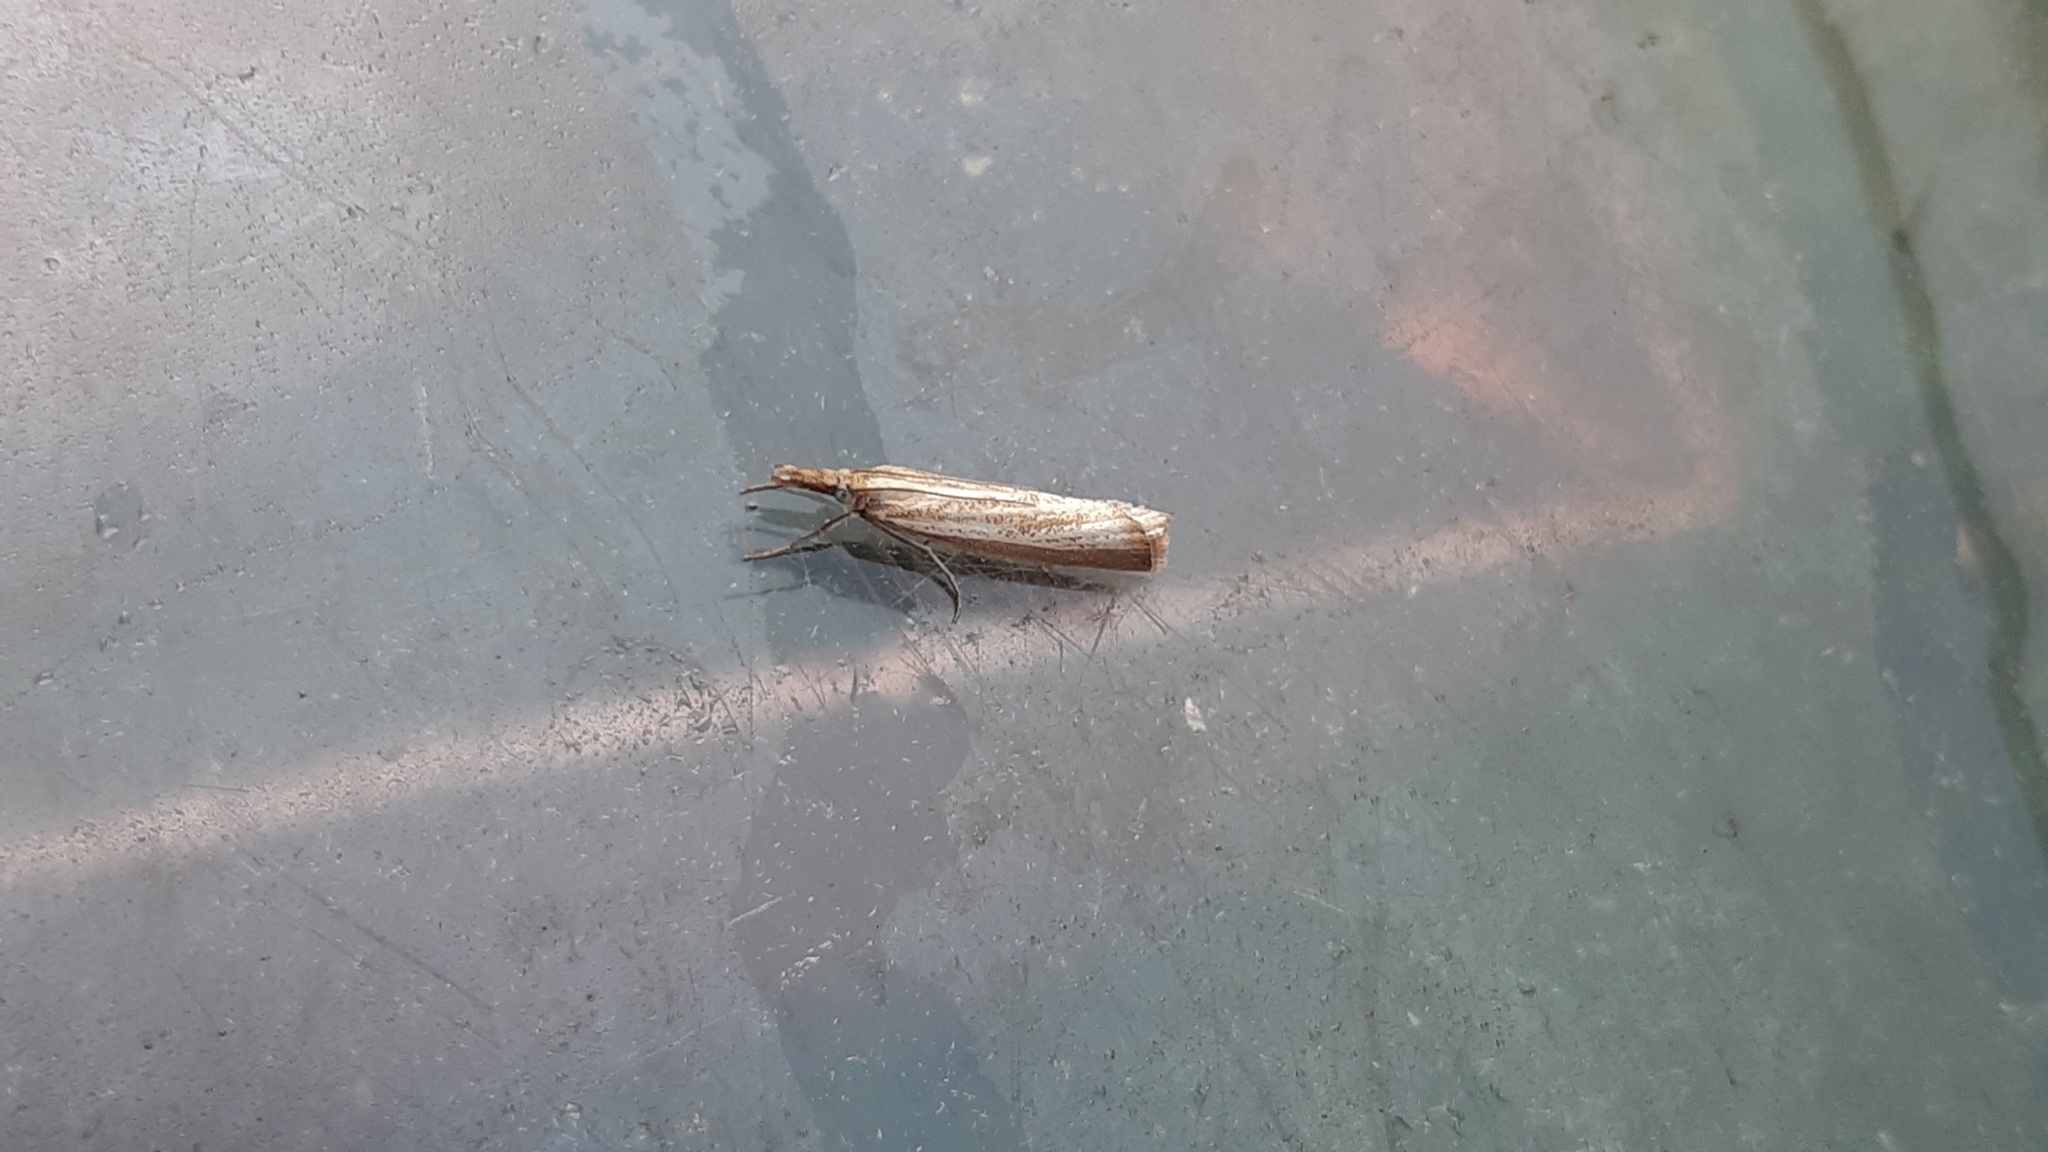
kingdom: Animalia
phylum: Arthropoda
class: Insecta
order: Lepidoptera
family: Crambidae
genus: Agriphila
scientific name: Agriphila straminella
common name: Straw grass-veneer
